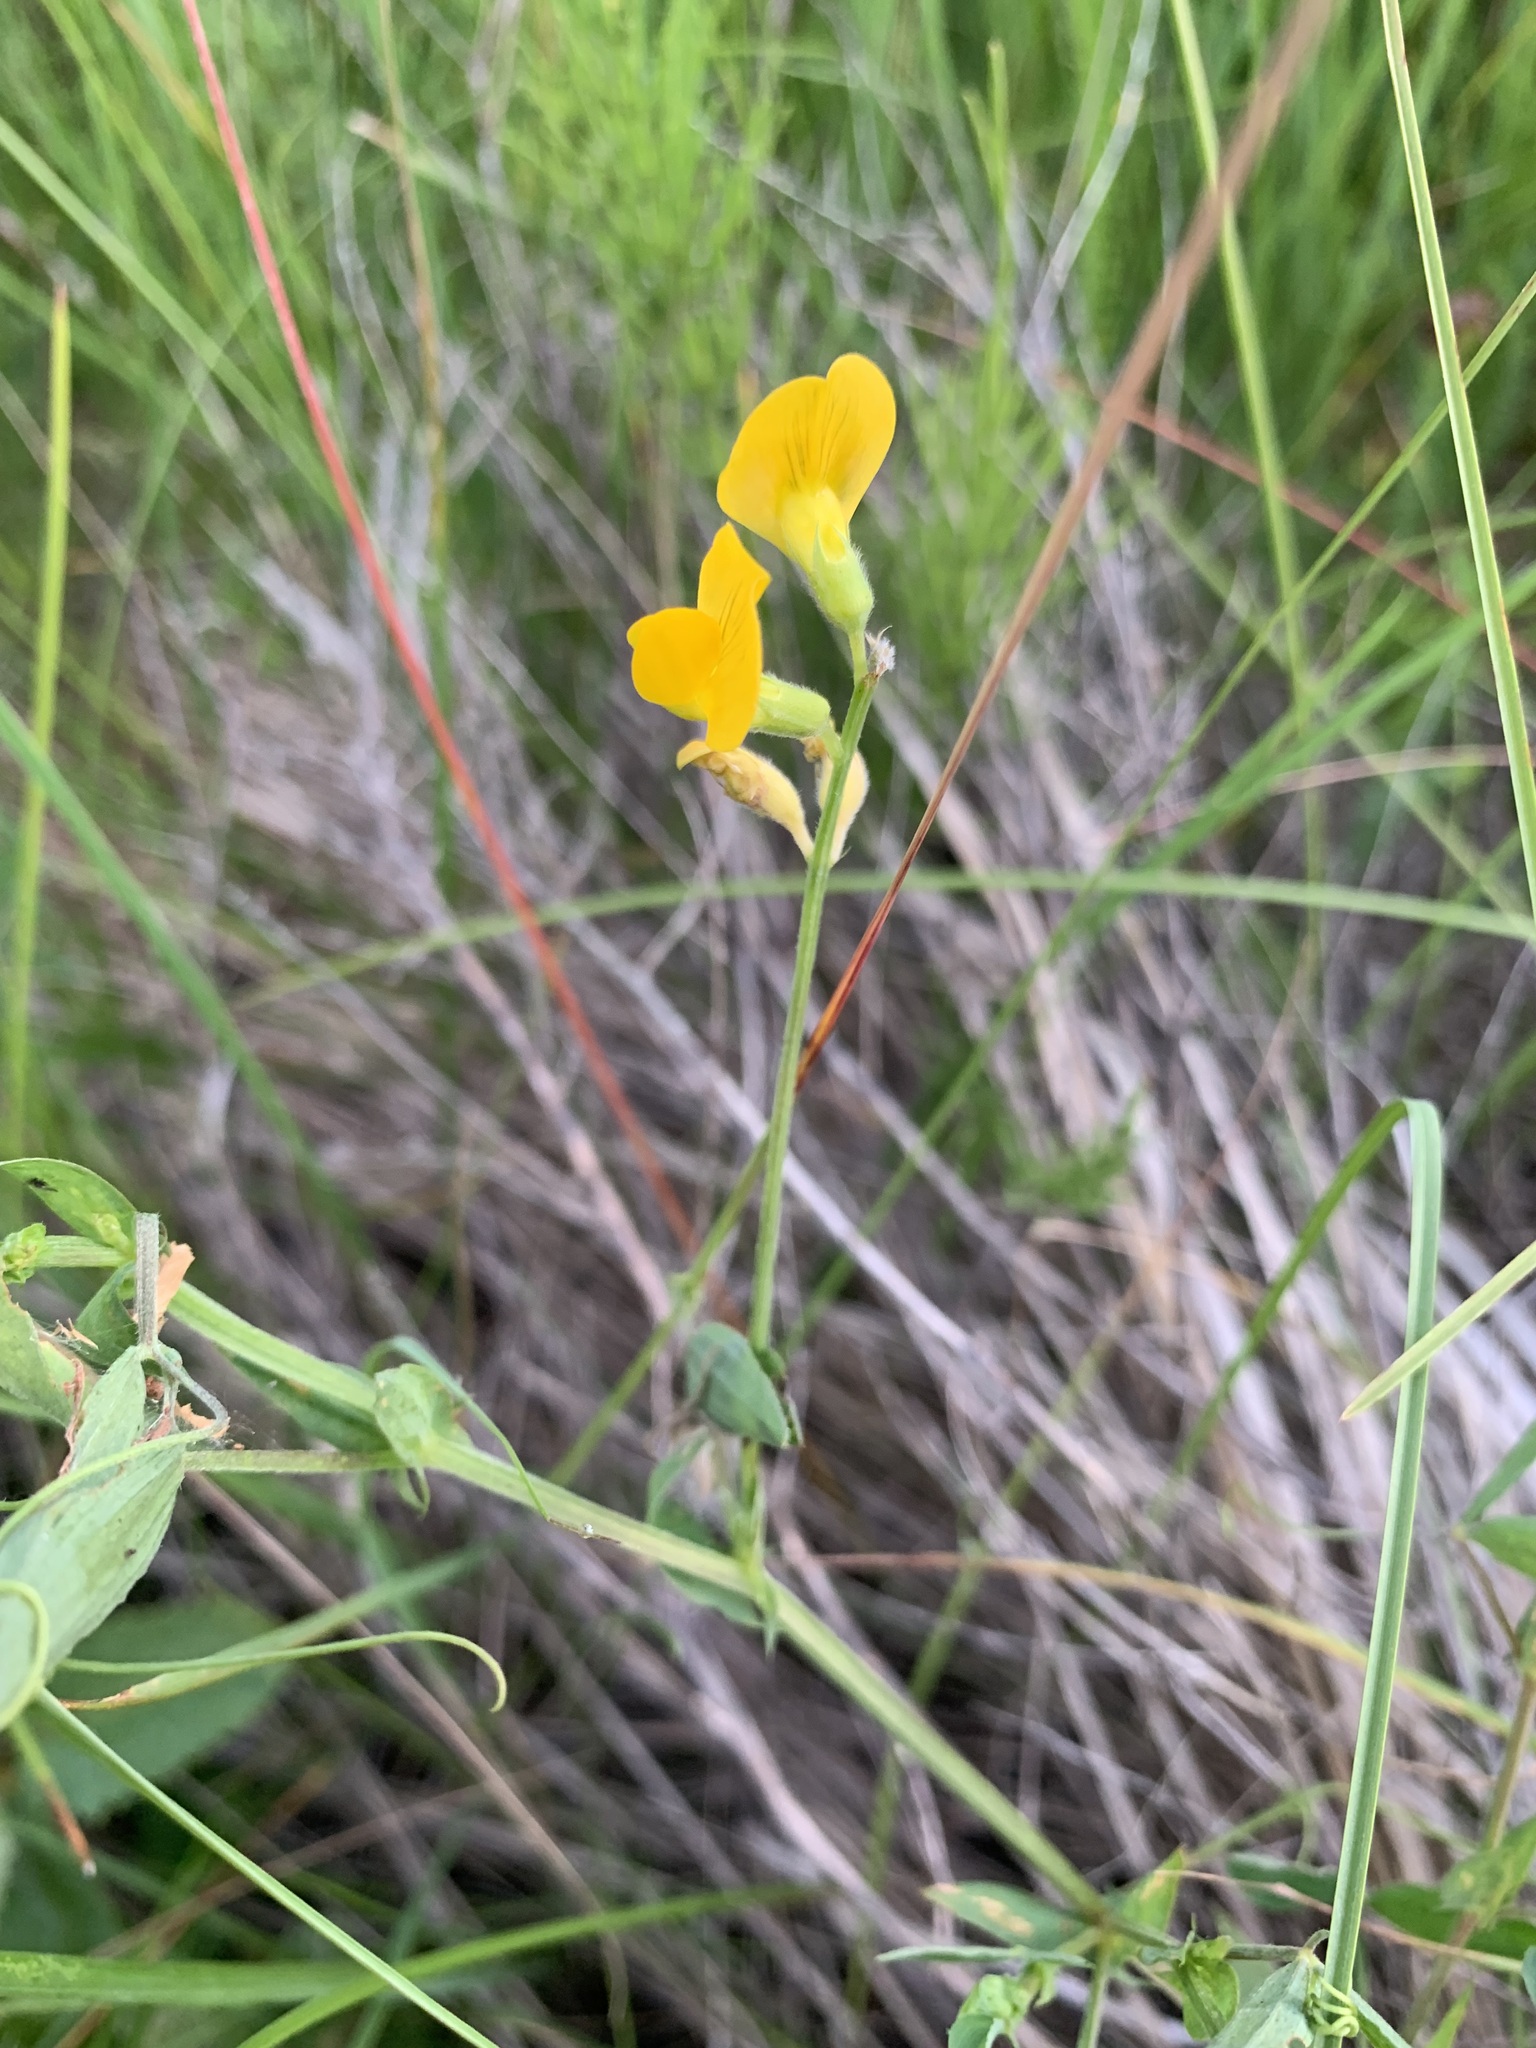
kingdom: Plantae
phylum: Tracheophyta
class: Magnoliopsida
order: Fabales
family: Fabaceae
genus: Lathyrus
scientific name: Lathyrus pratensis
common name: Meadow vetchling
